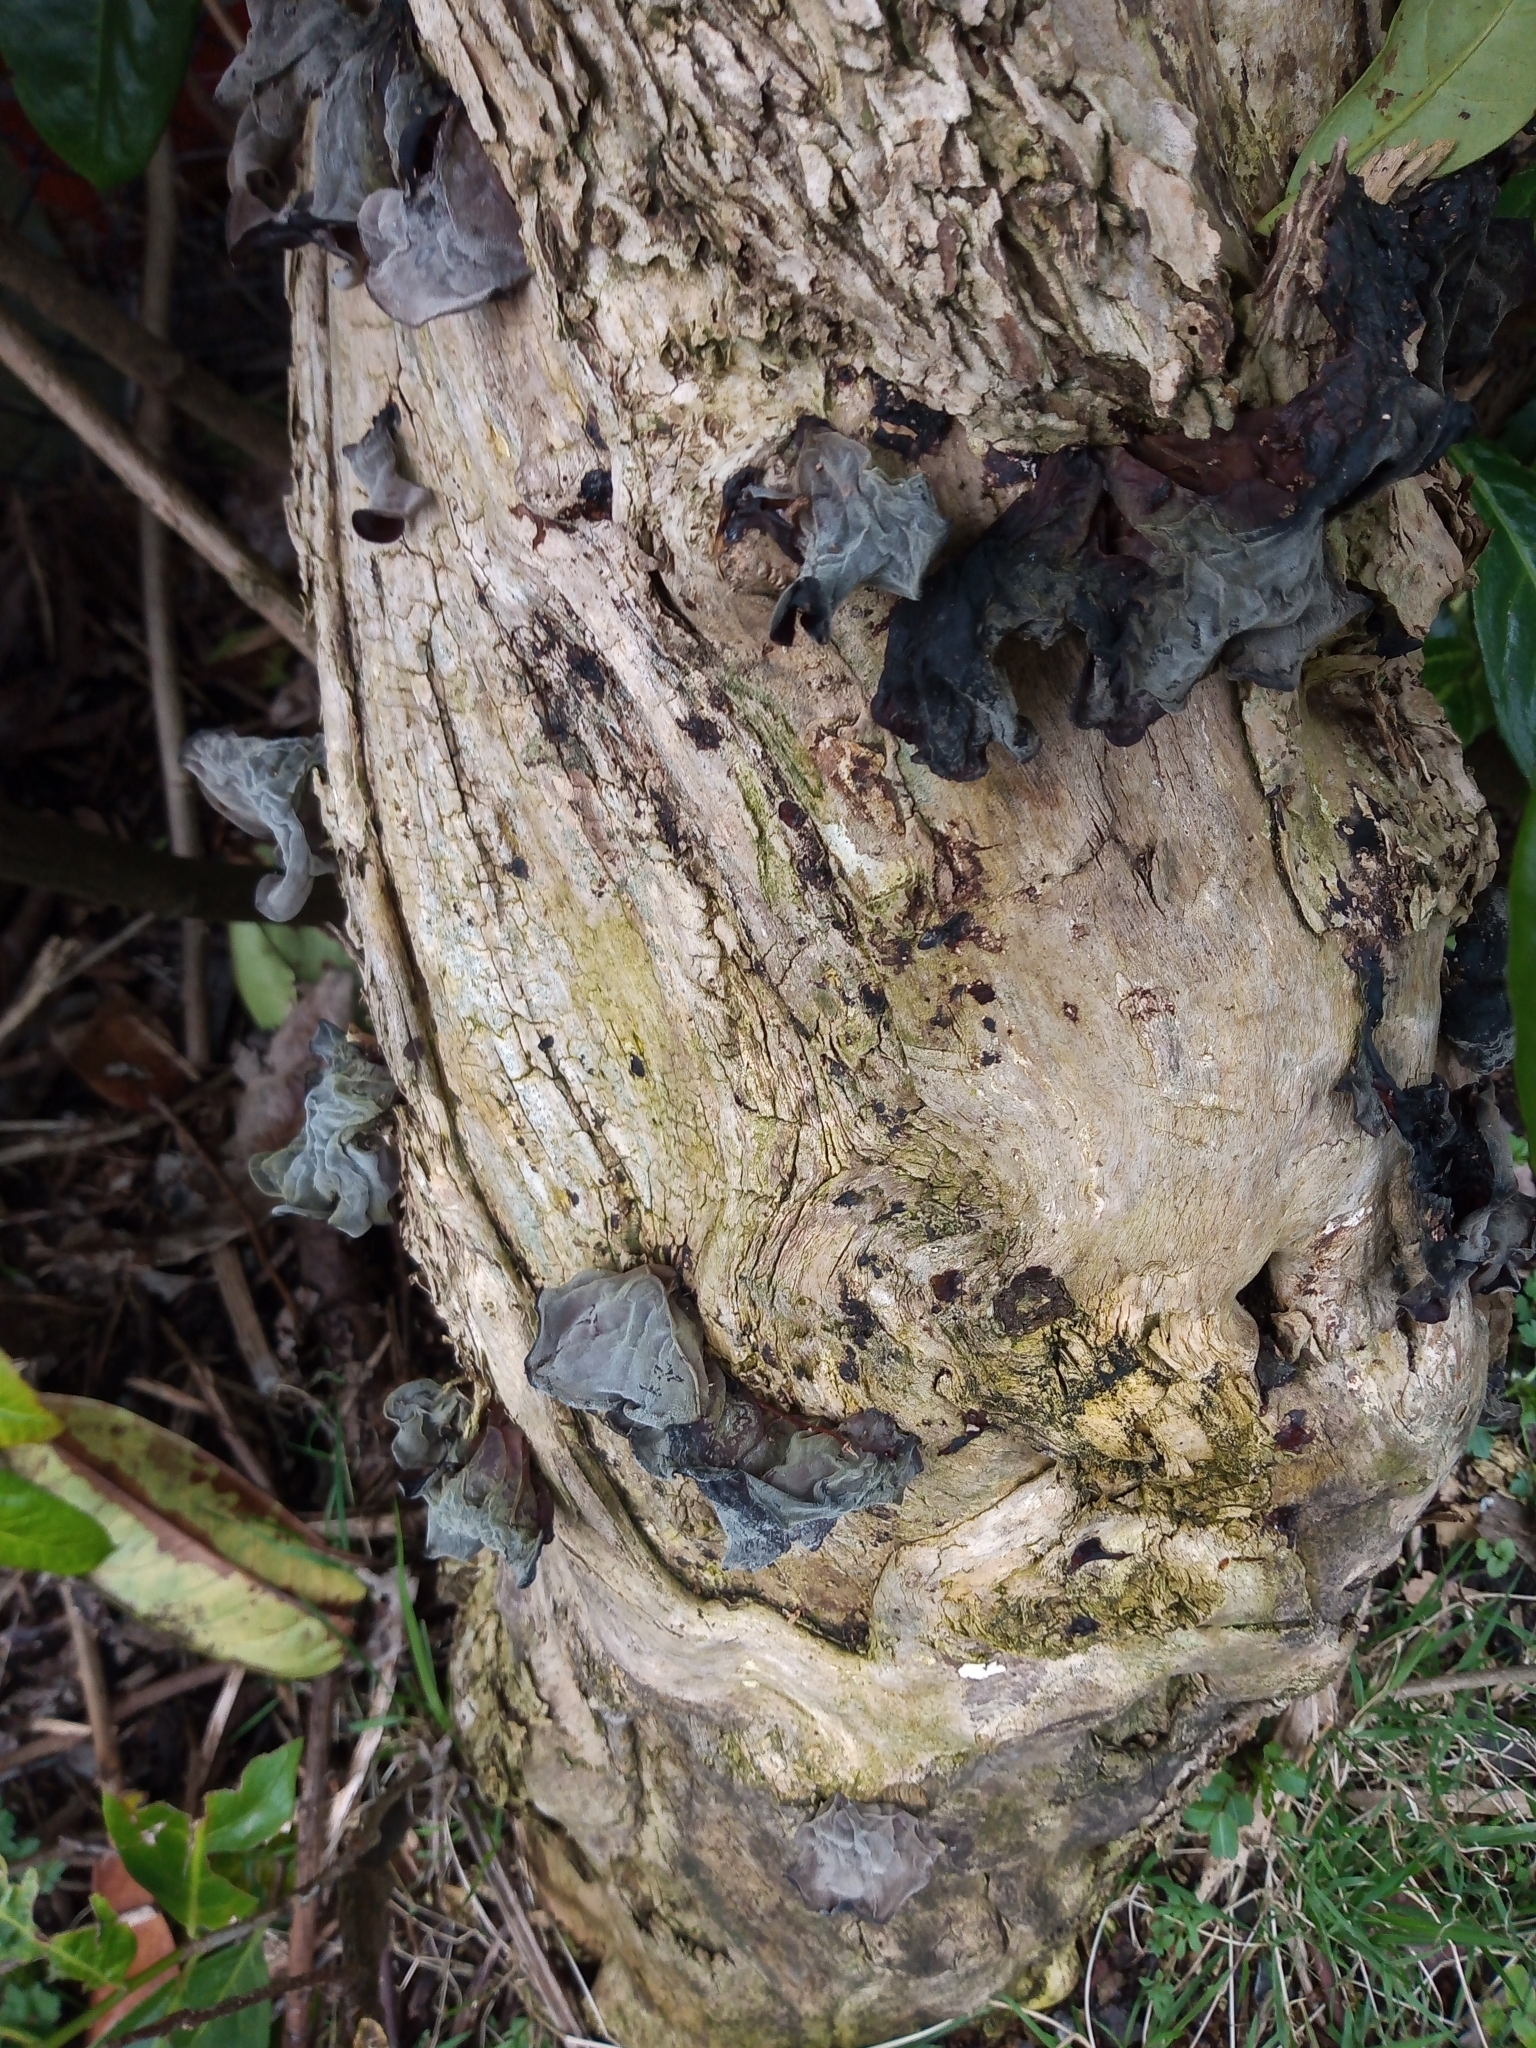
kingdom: Fungi
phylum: Basidiomycota
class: Agaricomycetes
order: Auriculariales
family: Auriculariaceae
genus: Auricularia
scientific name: Auricularia auricula-judae
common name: Jelly ear
